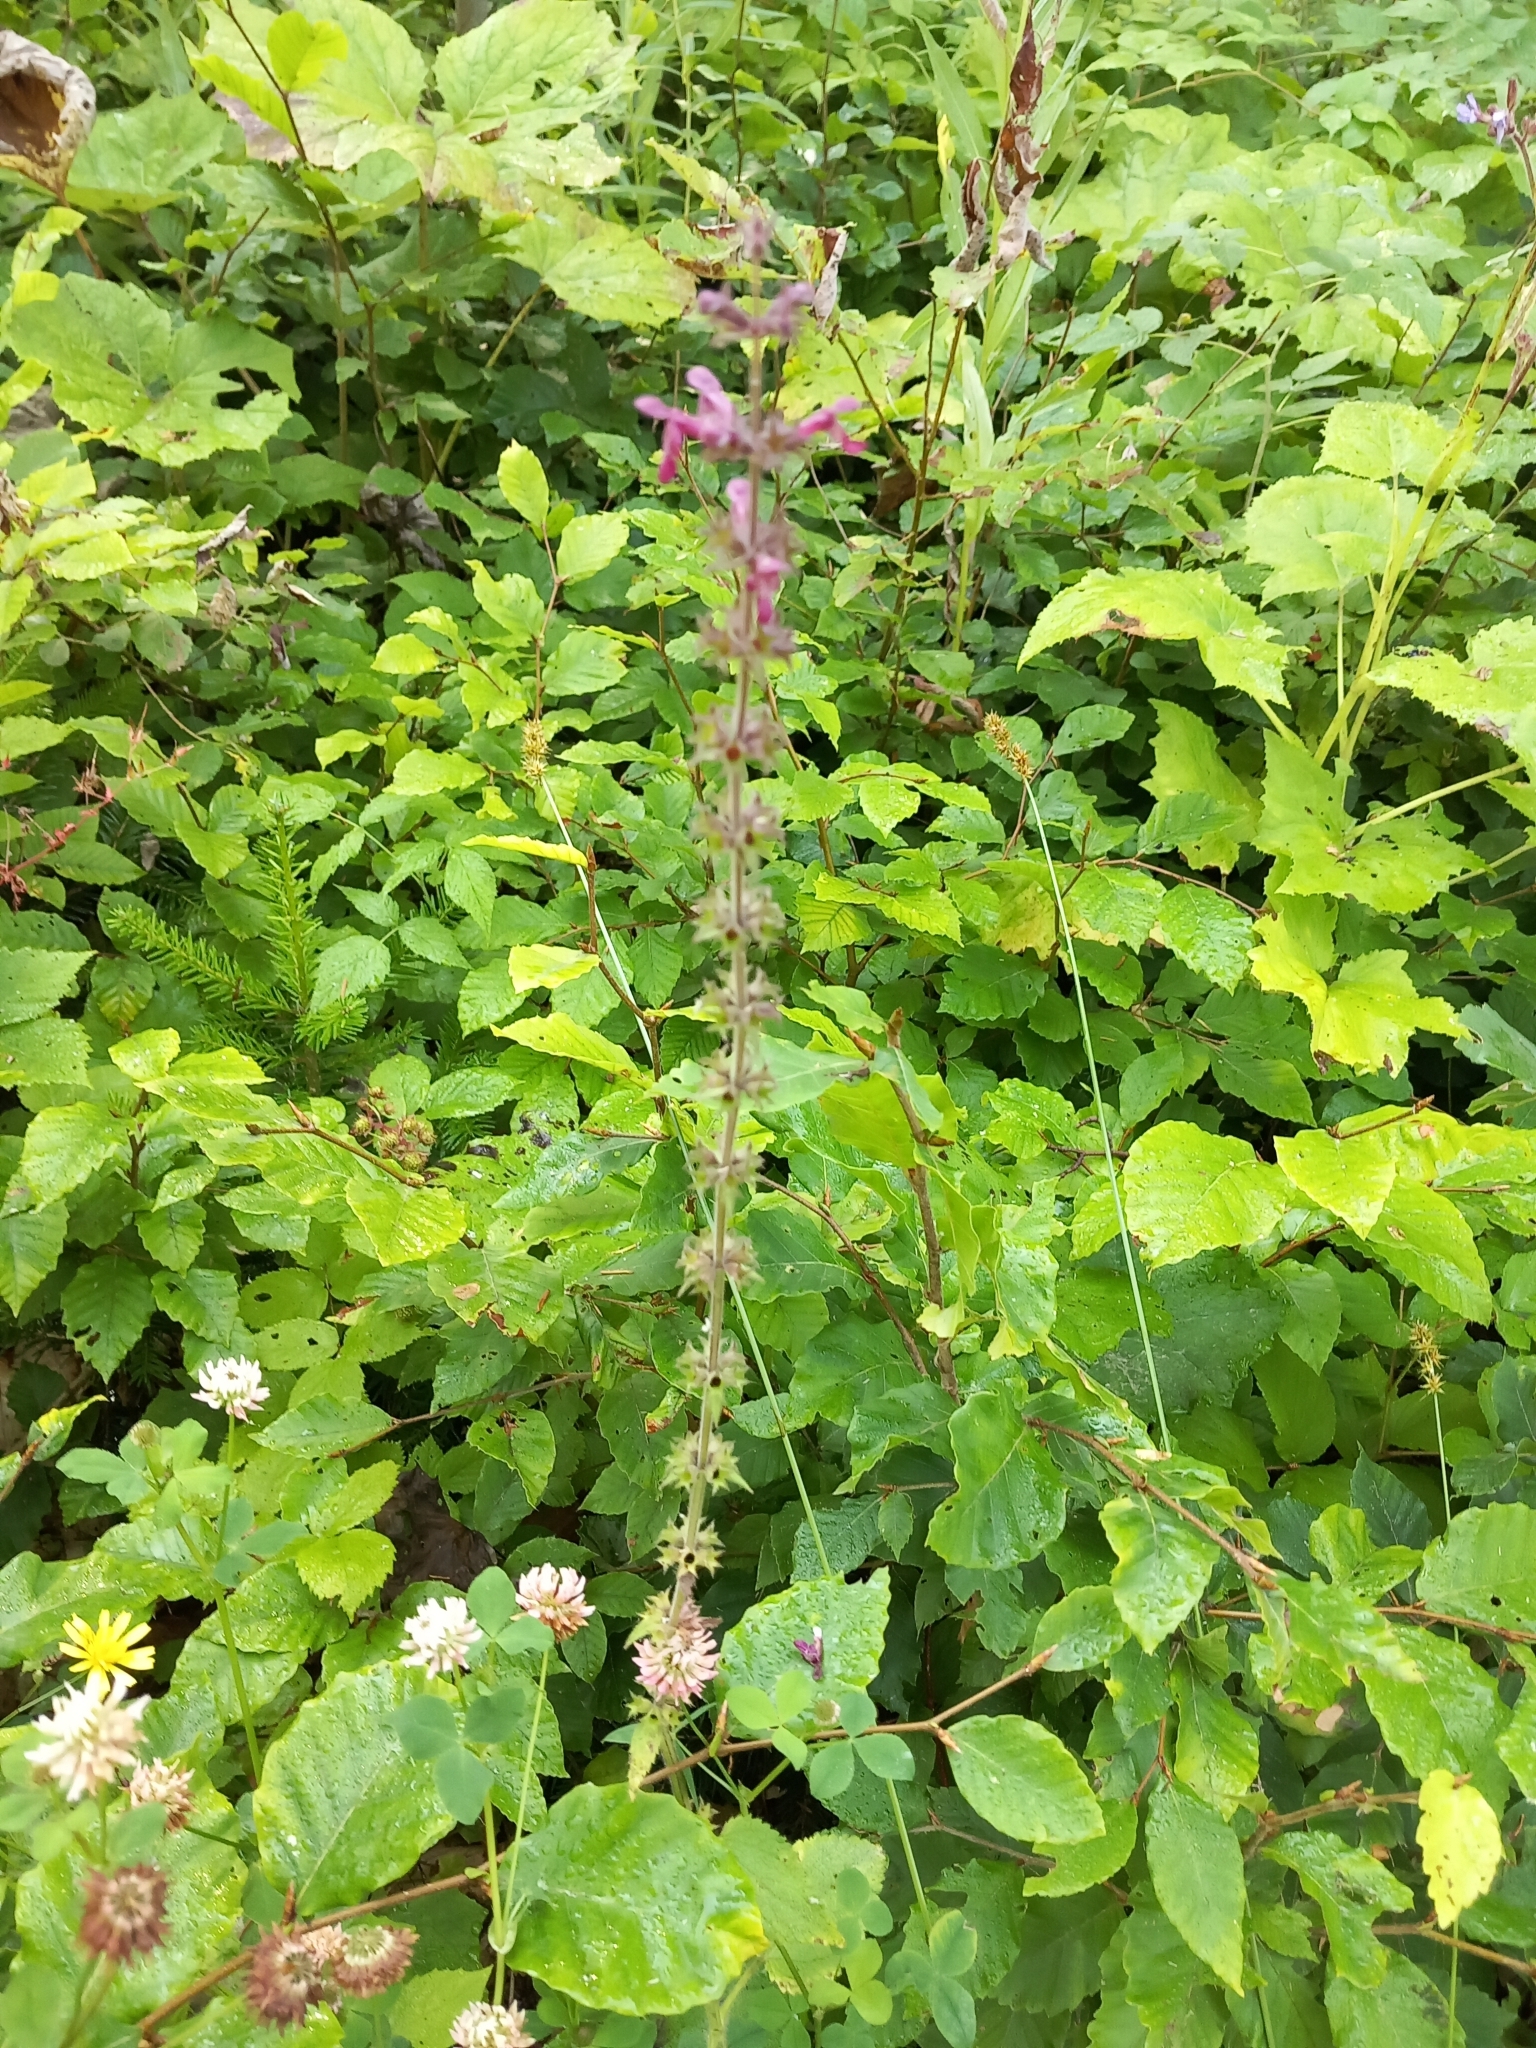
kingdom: Plantae
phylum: Tracheophyta
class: Magnoliopsida
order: Lamiales
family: Lamiaceae
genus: Stachys
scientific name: Stachys sylvatica
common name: Hedge woundwort
